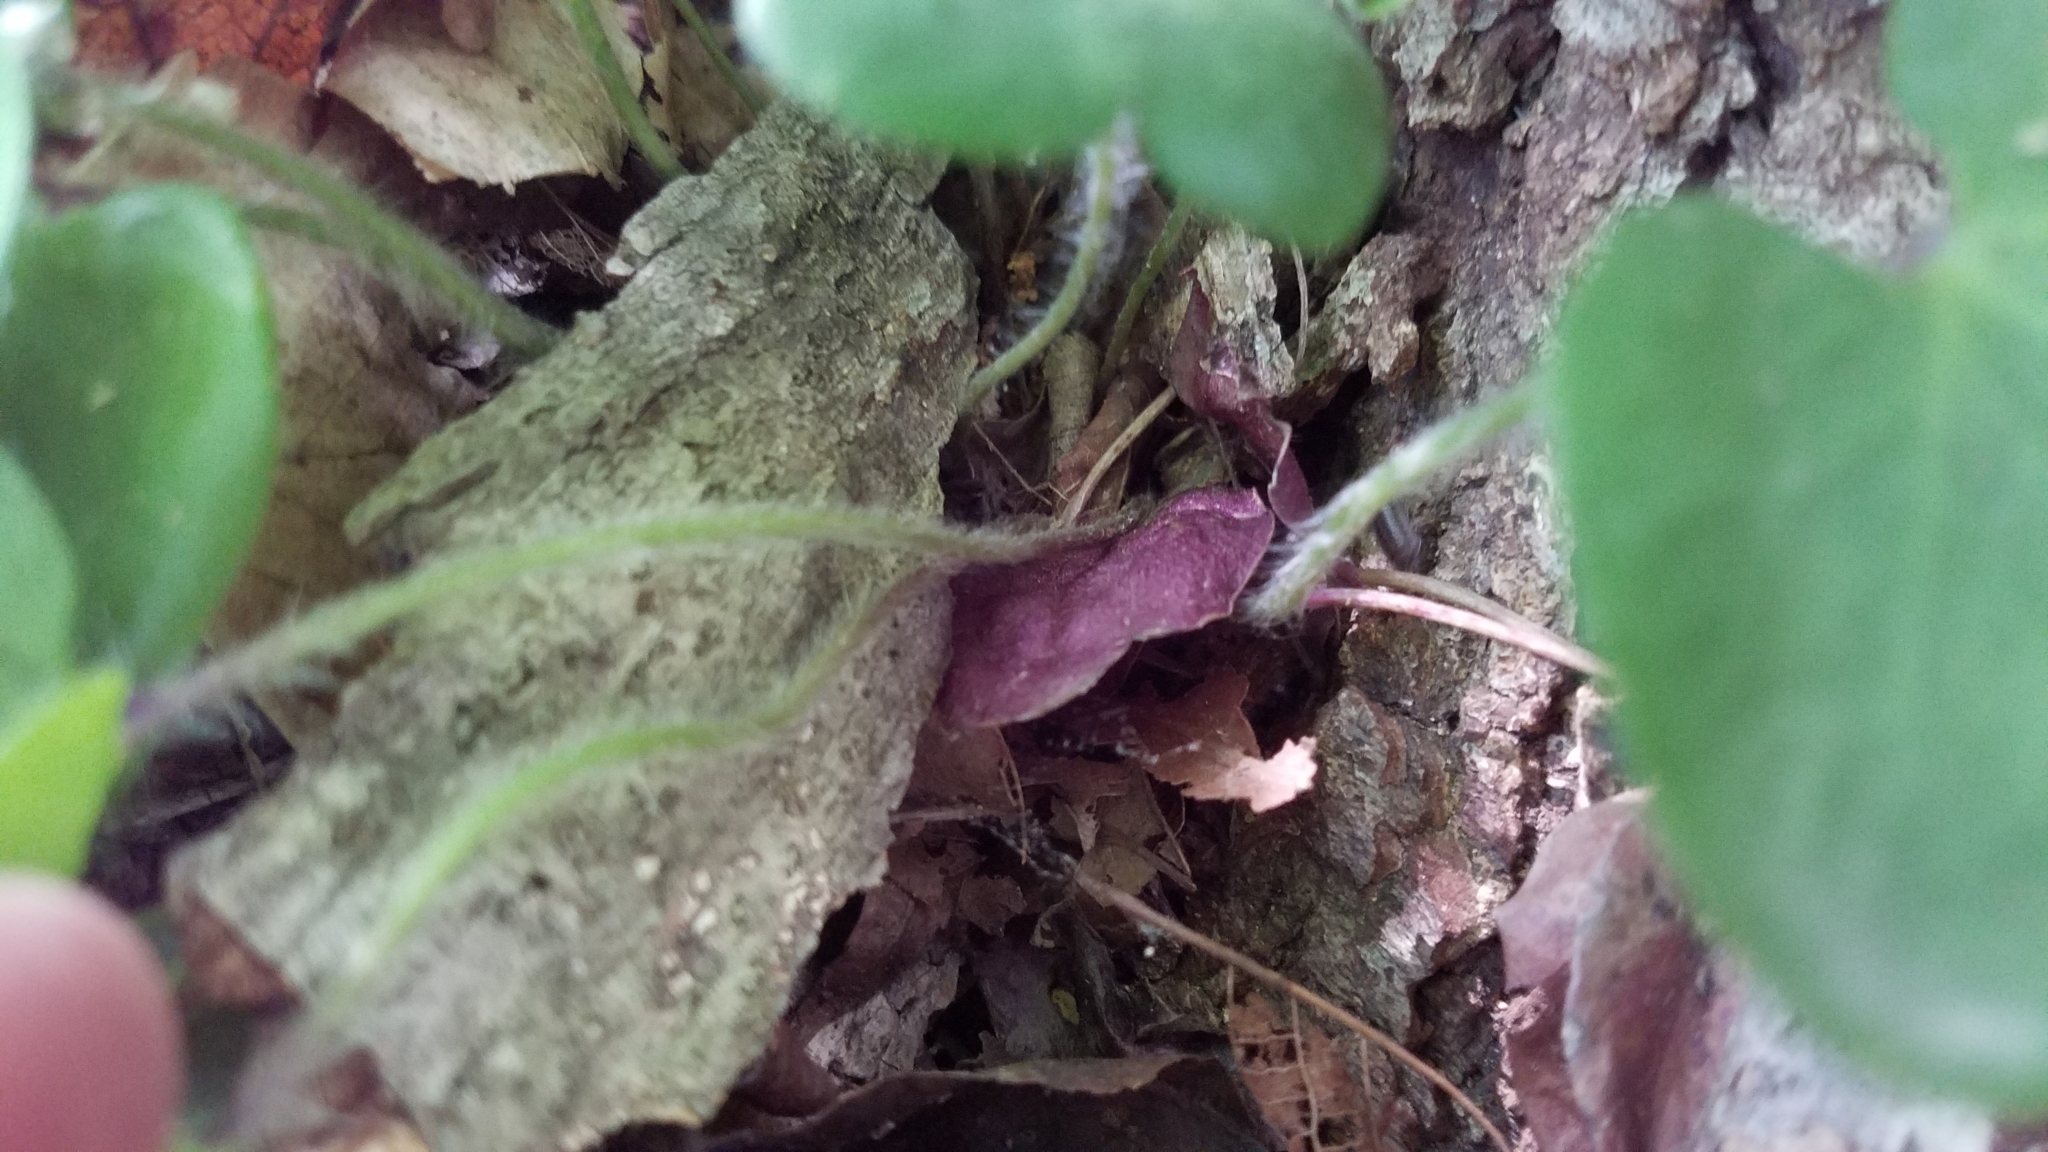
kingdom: Plantae
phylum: Tracheophyta
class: Magnoliopsida
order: Ranunculales
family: Ranunculaceae
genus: Hepatica
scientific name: Hepatica americana
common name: American hepatica
